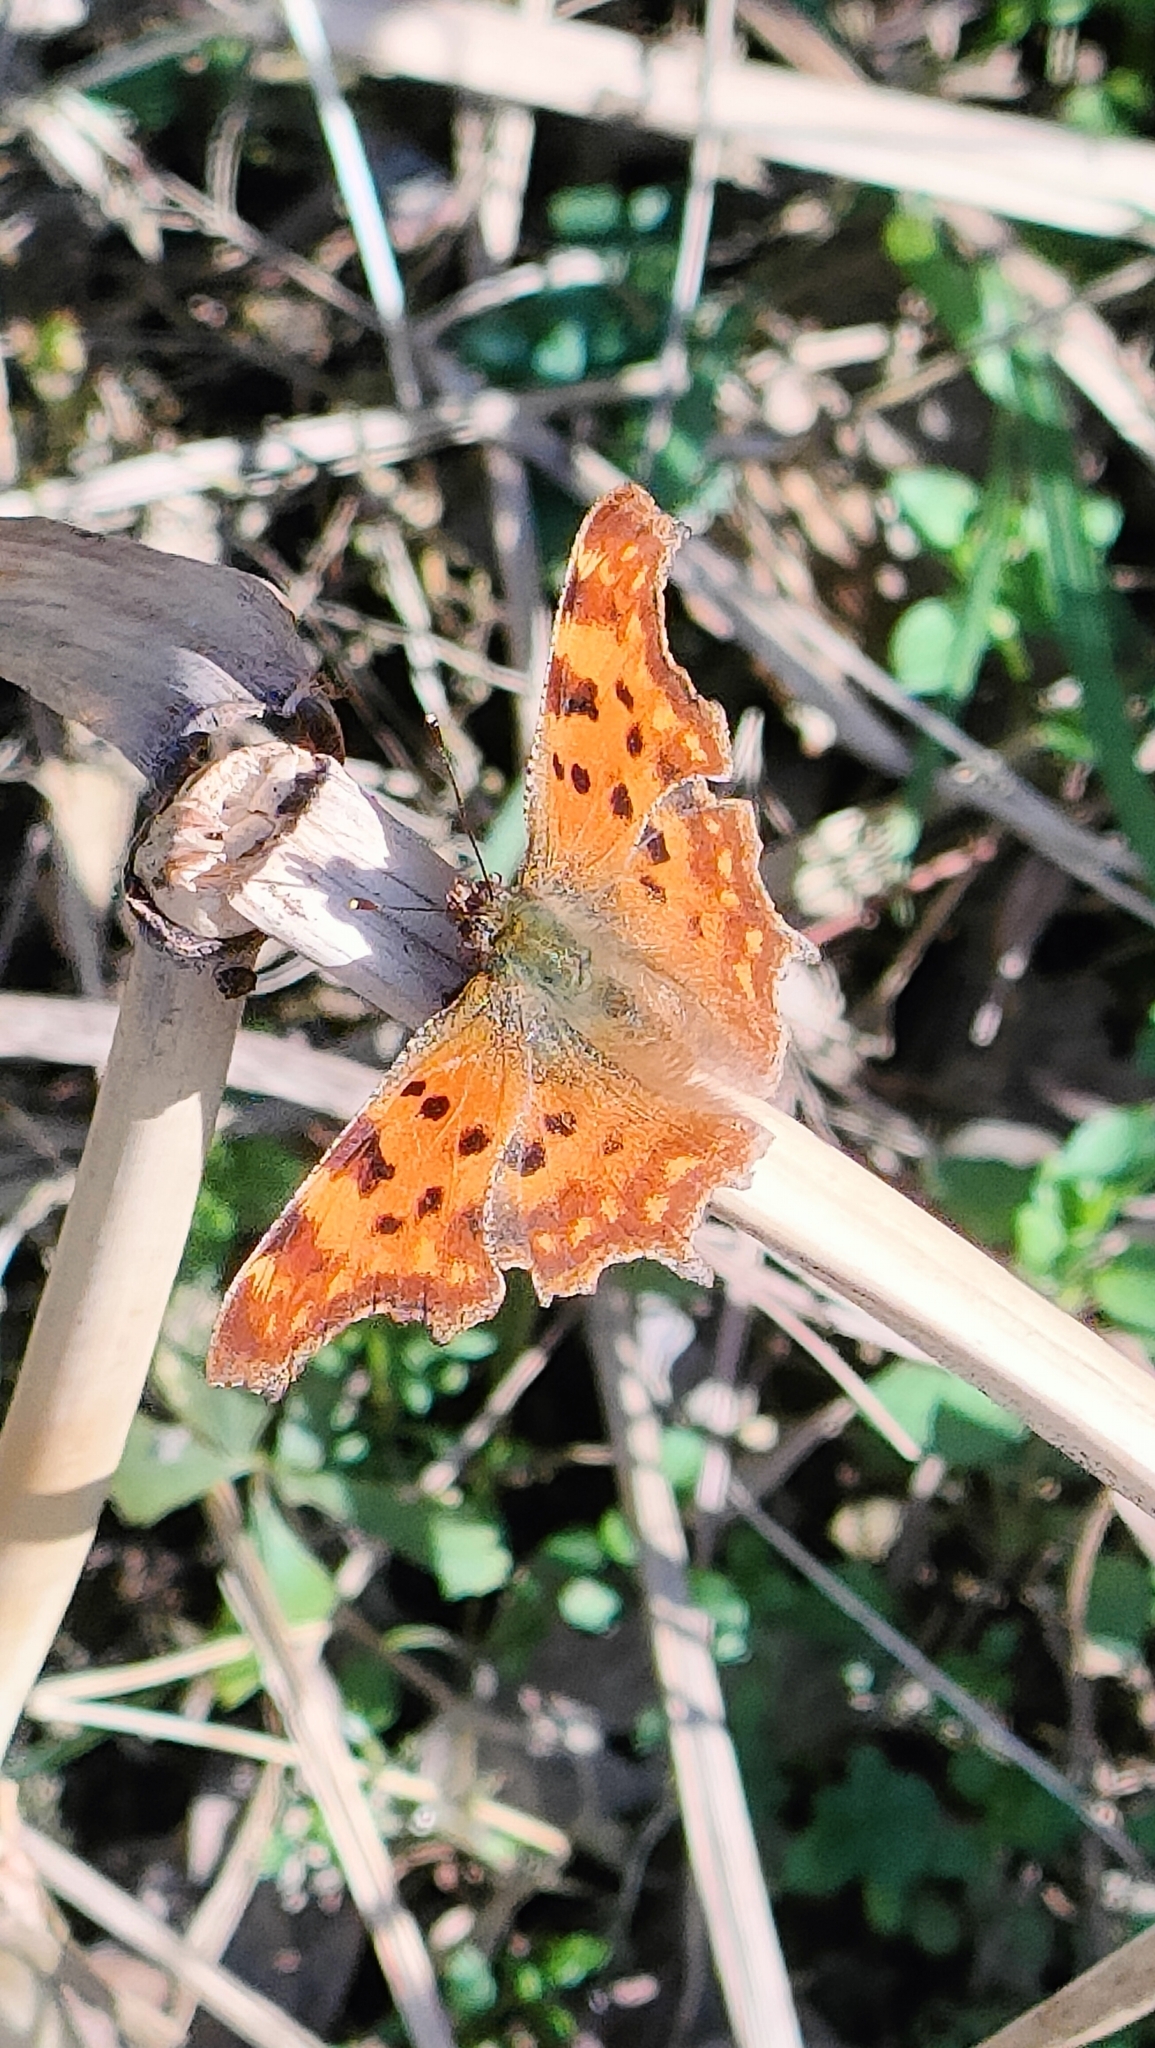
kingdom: Animalia
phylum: Arthropoda
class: Insecta
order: Lepidoptera
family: Nymphalidae
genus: Polygonia
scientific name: Polygonia c-album
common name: Comma
